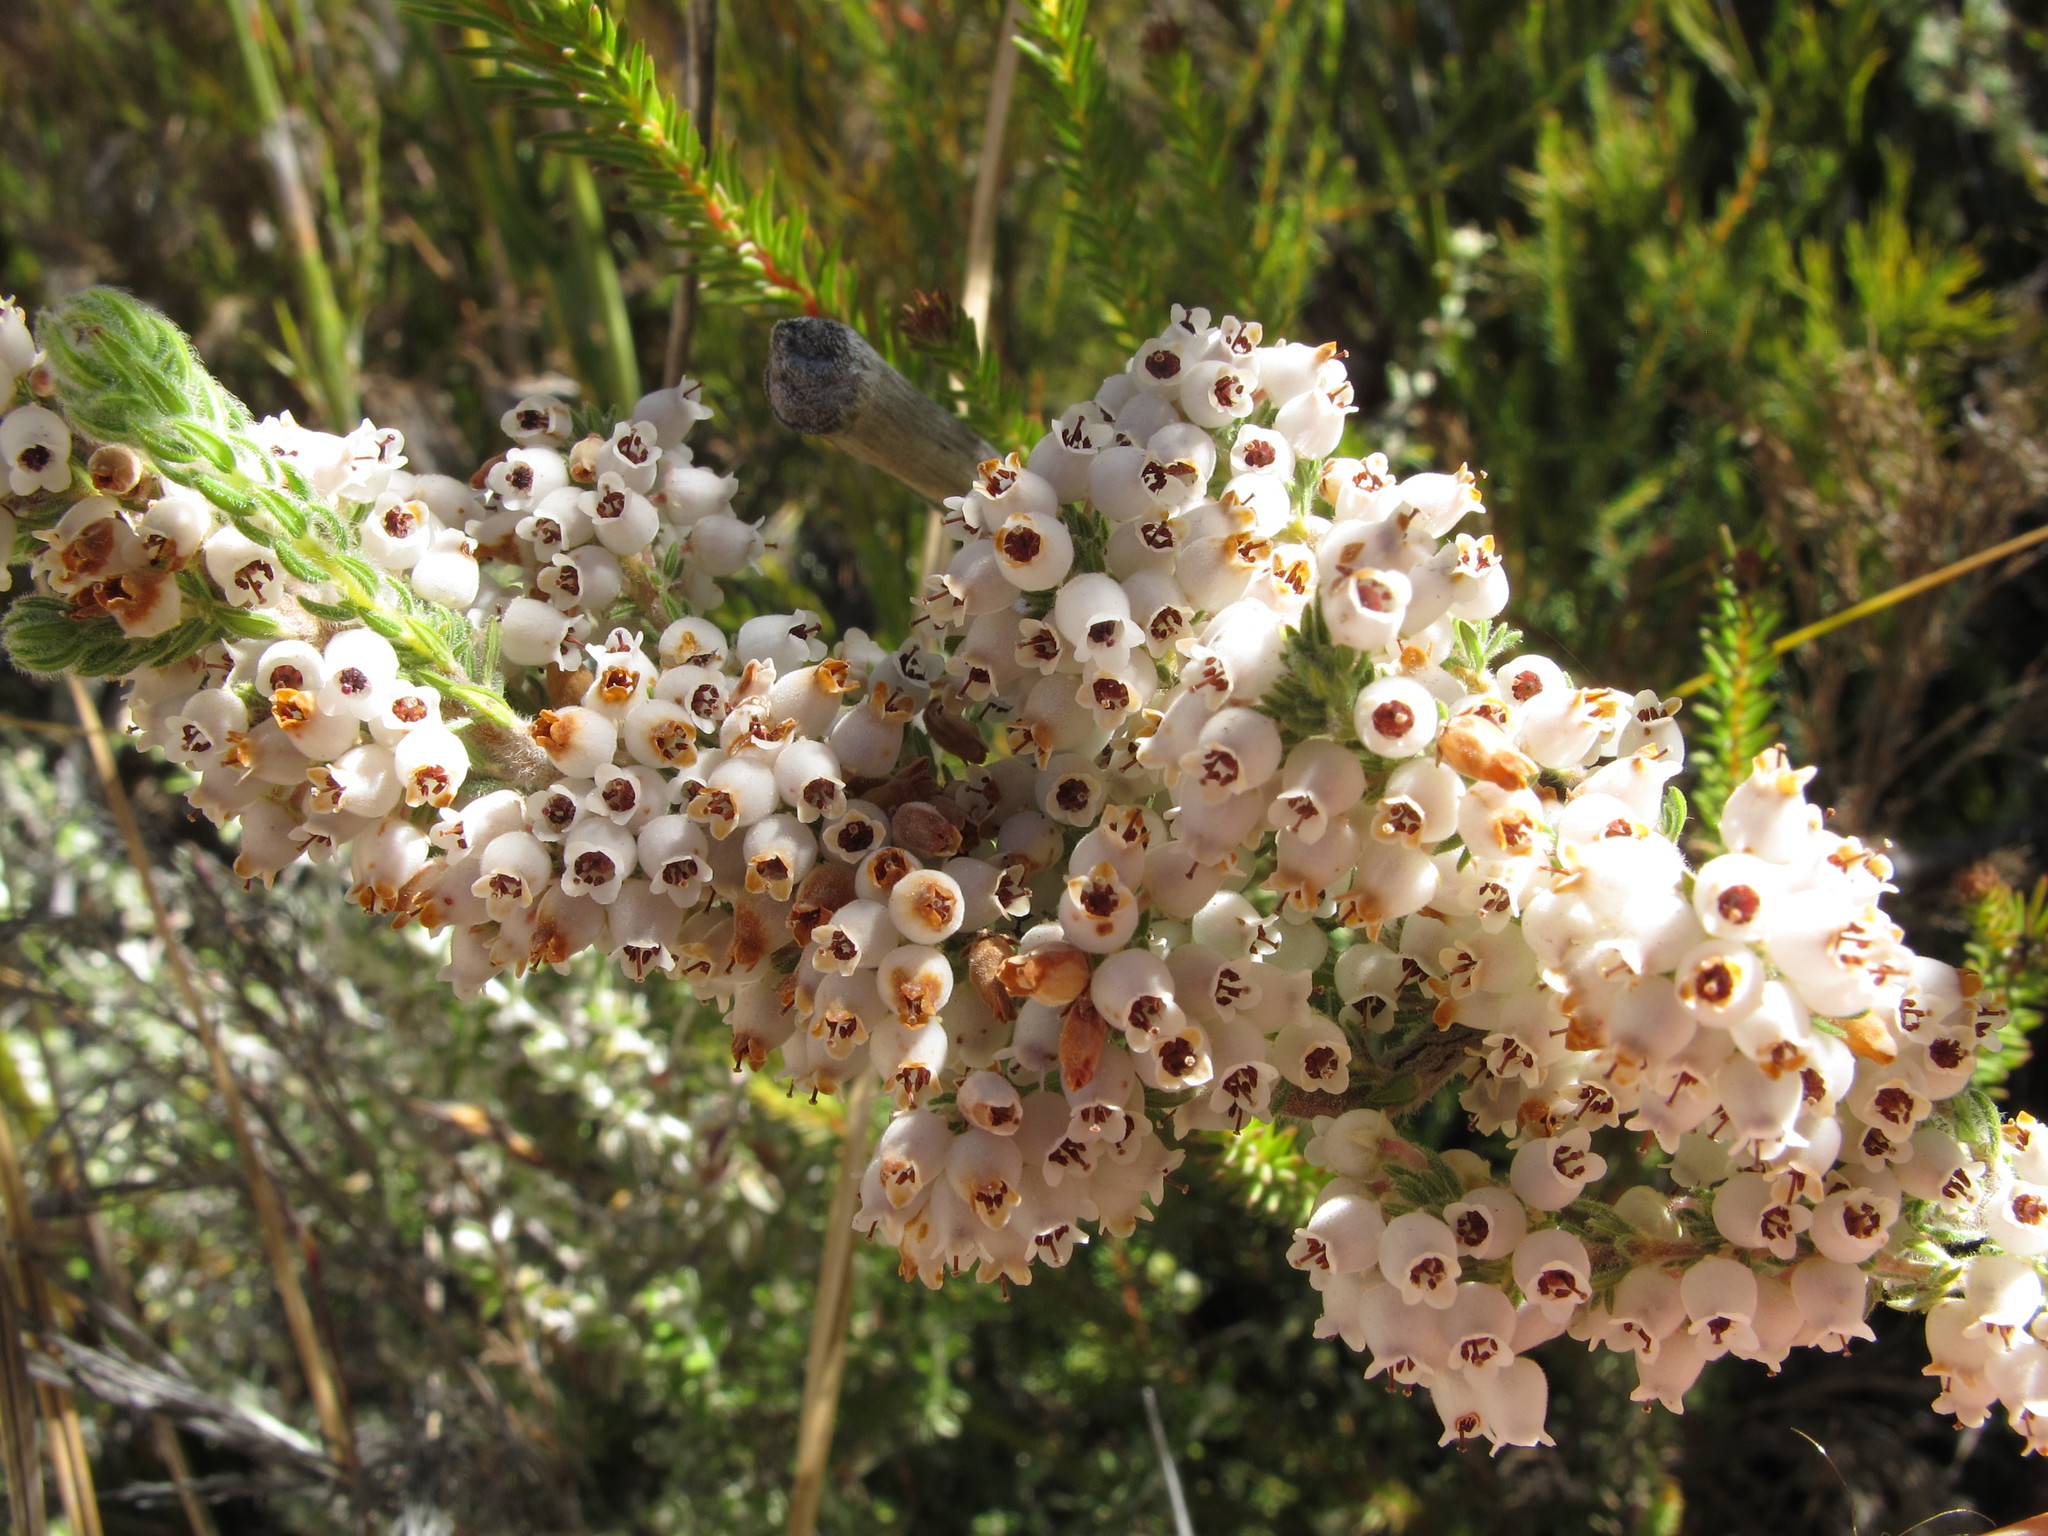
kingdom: Plantae
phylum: Tracheophyta
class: Magnoliopsida
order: Ericales
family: Ericaceae
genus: Erica
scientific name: Erica chionodes
